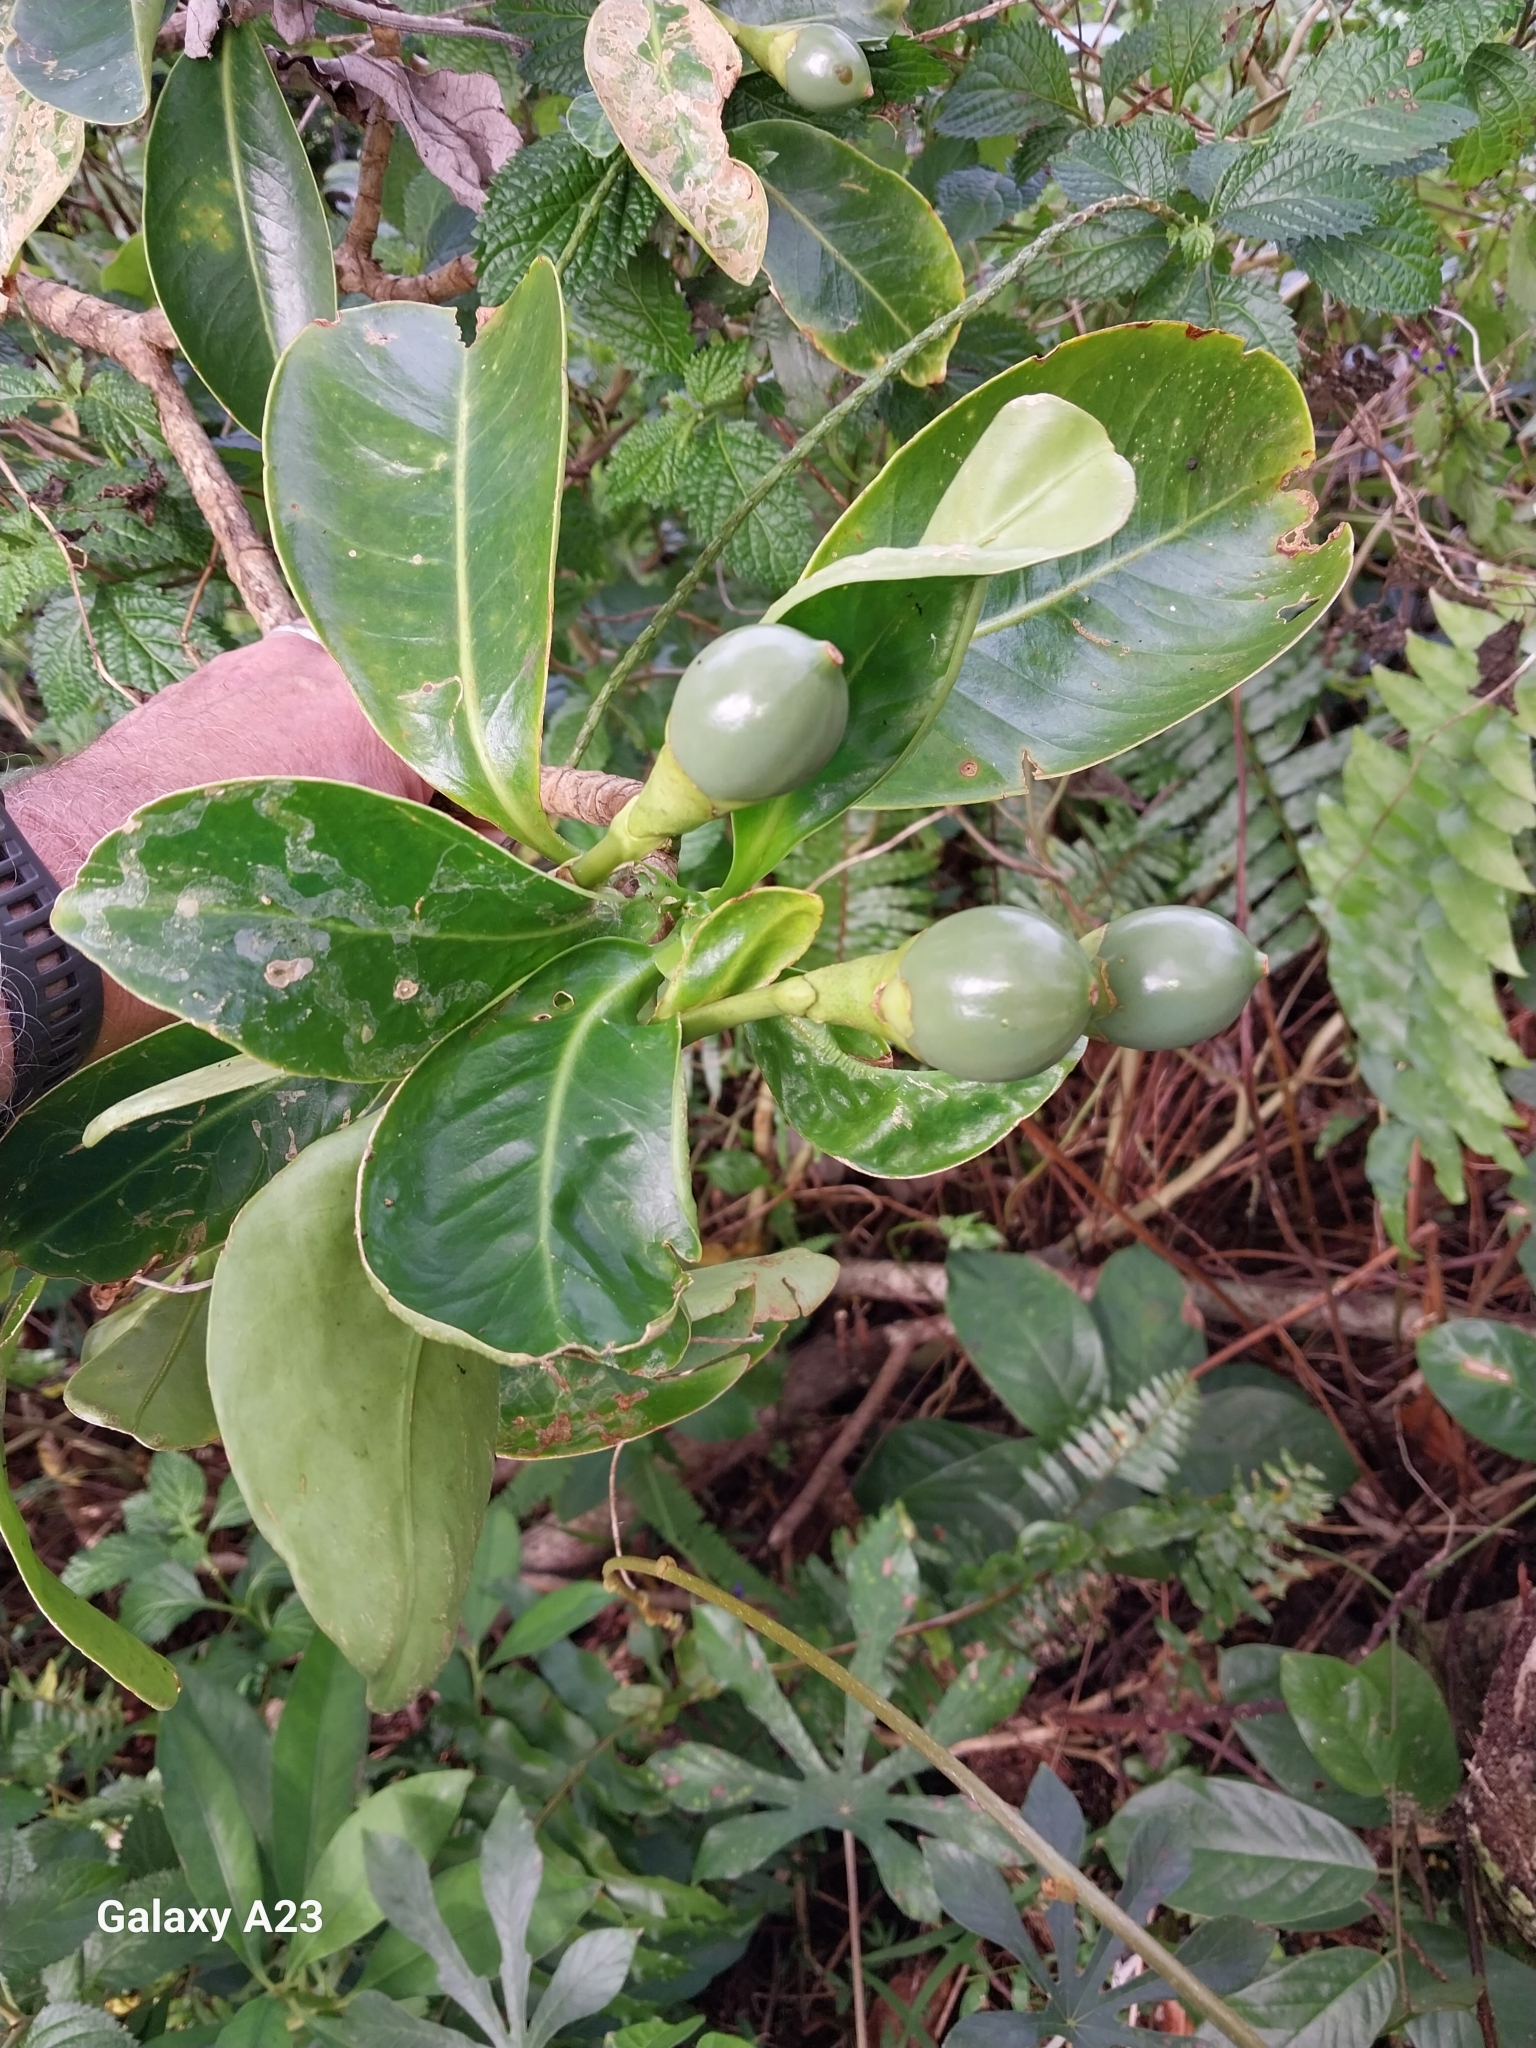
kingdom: Plantae
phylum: Tracheophyta
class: Magnoliopsida
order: Gentianales
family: Gentianaceae
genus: Fagraea
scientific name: Fagraea berteroana
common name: Cape jitta
